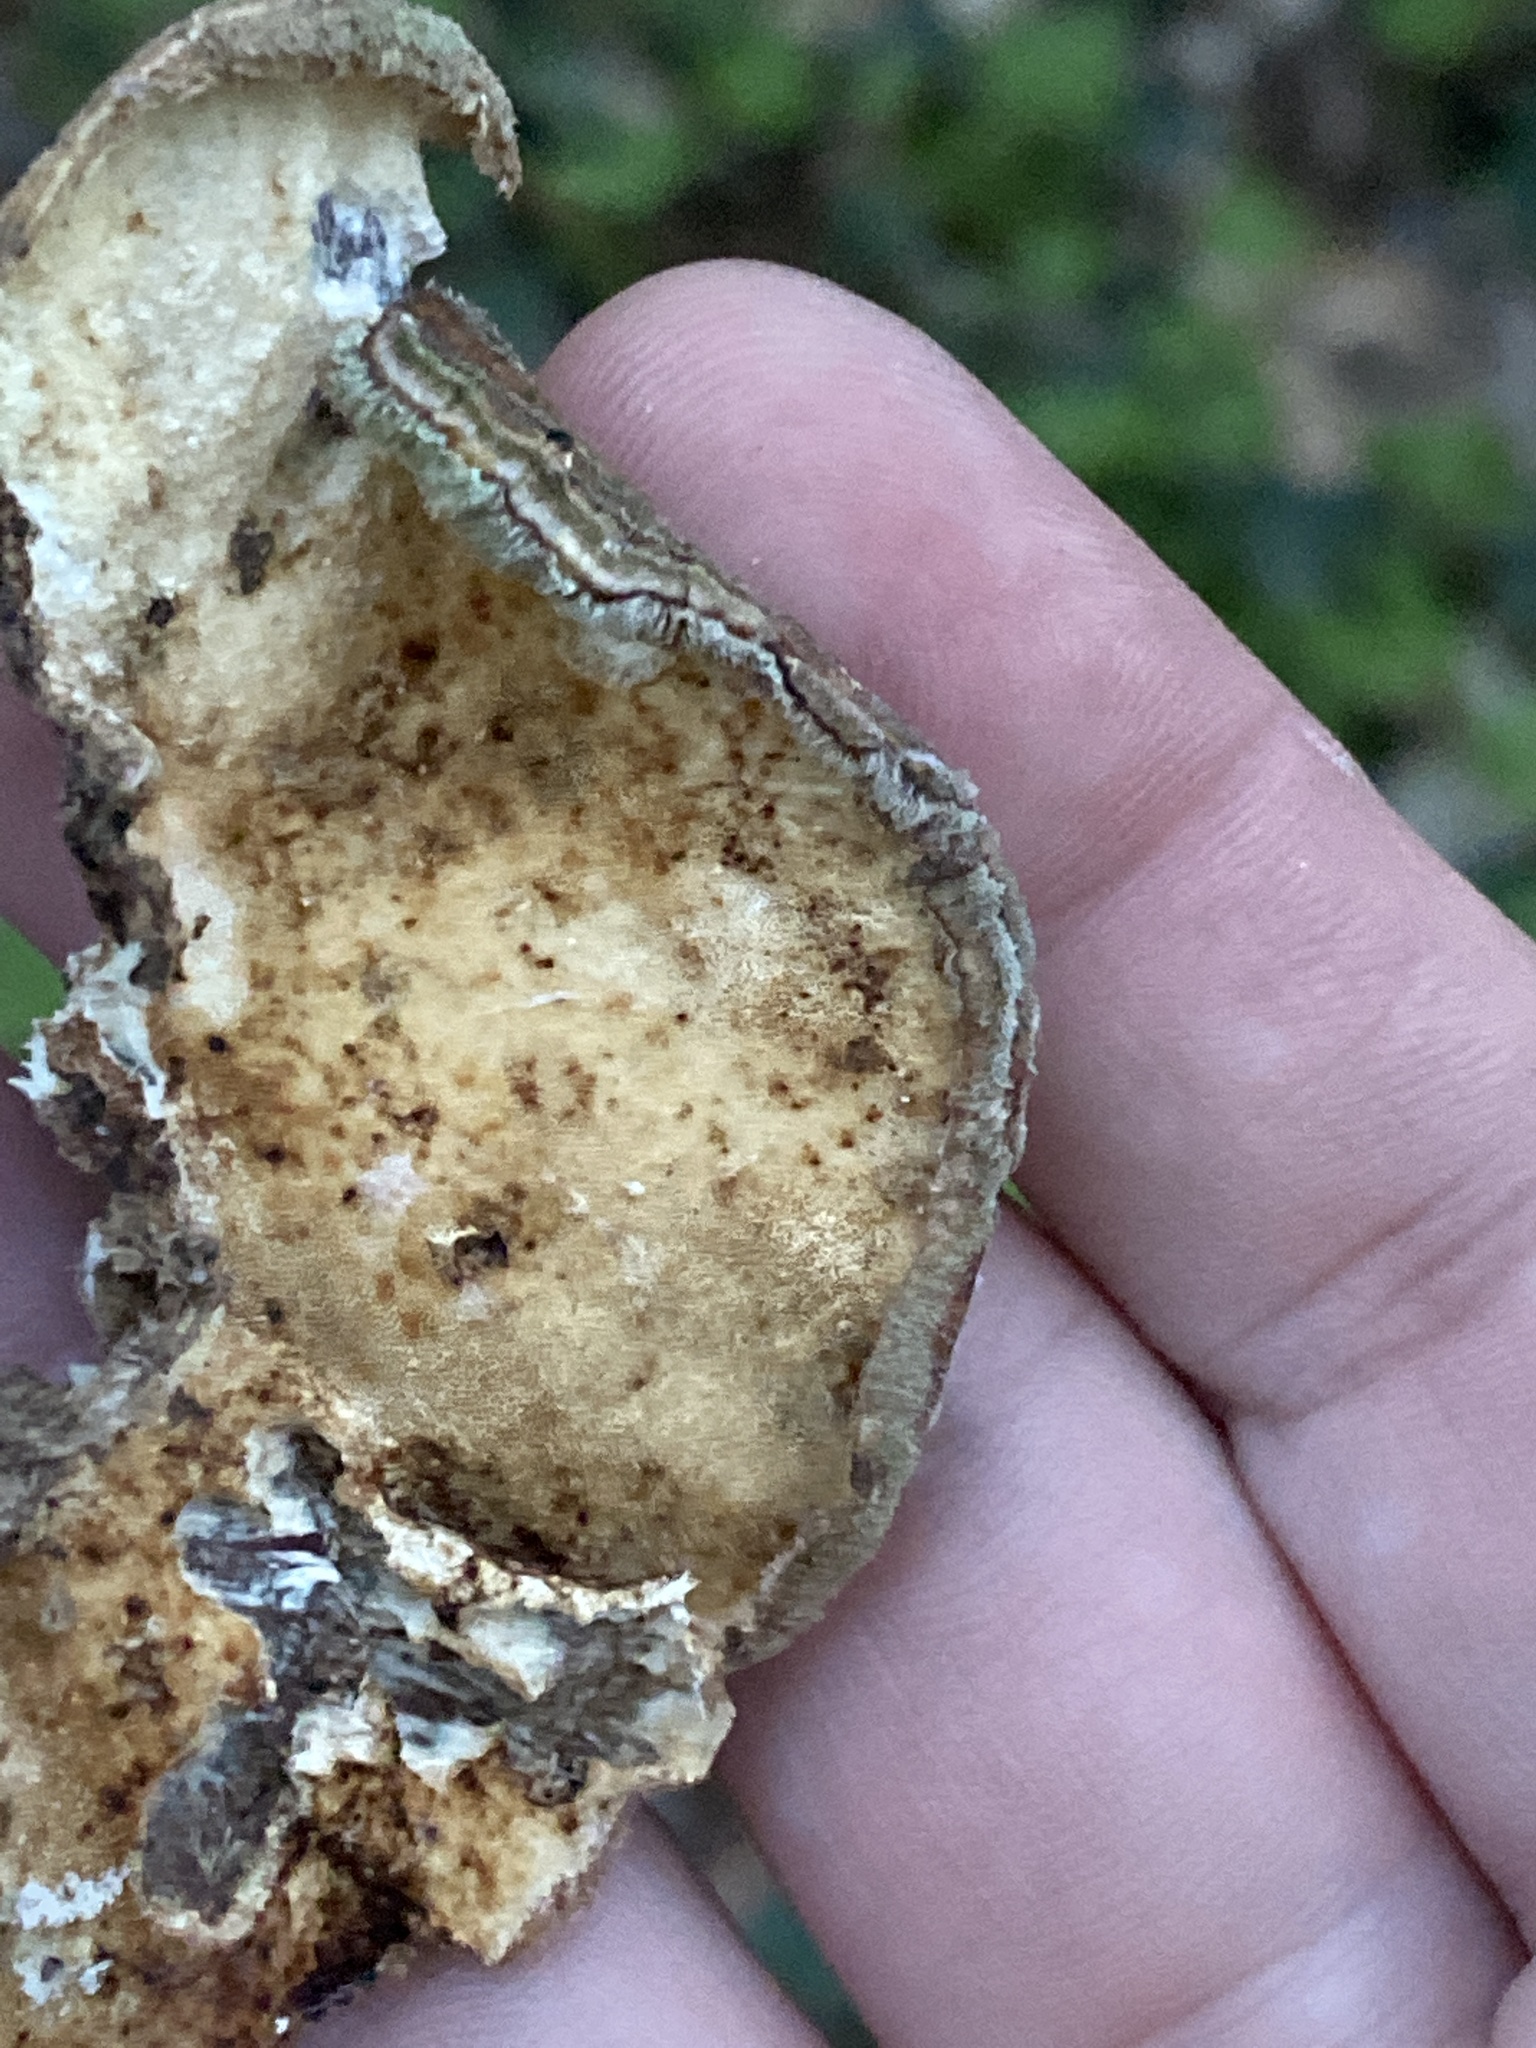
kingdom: Fungi
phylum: Basidiomycota
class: Agaricomycetes
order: Polyporales
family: Polyporaceae
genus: Trametes
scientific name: Trametes versicolor
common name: Turkeytail
